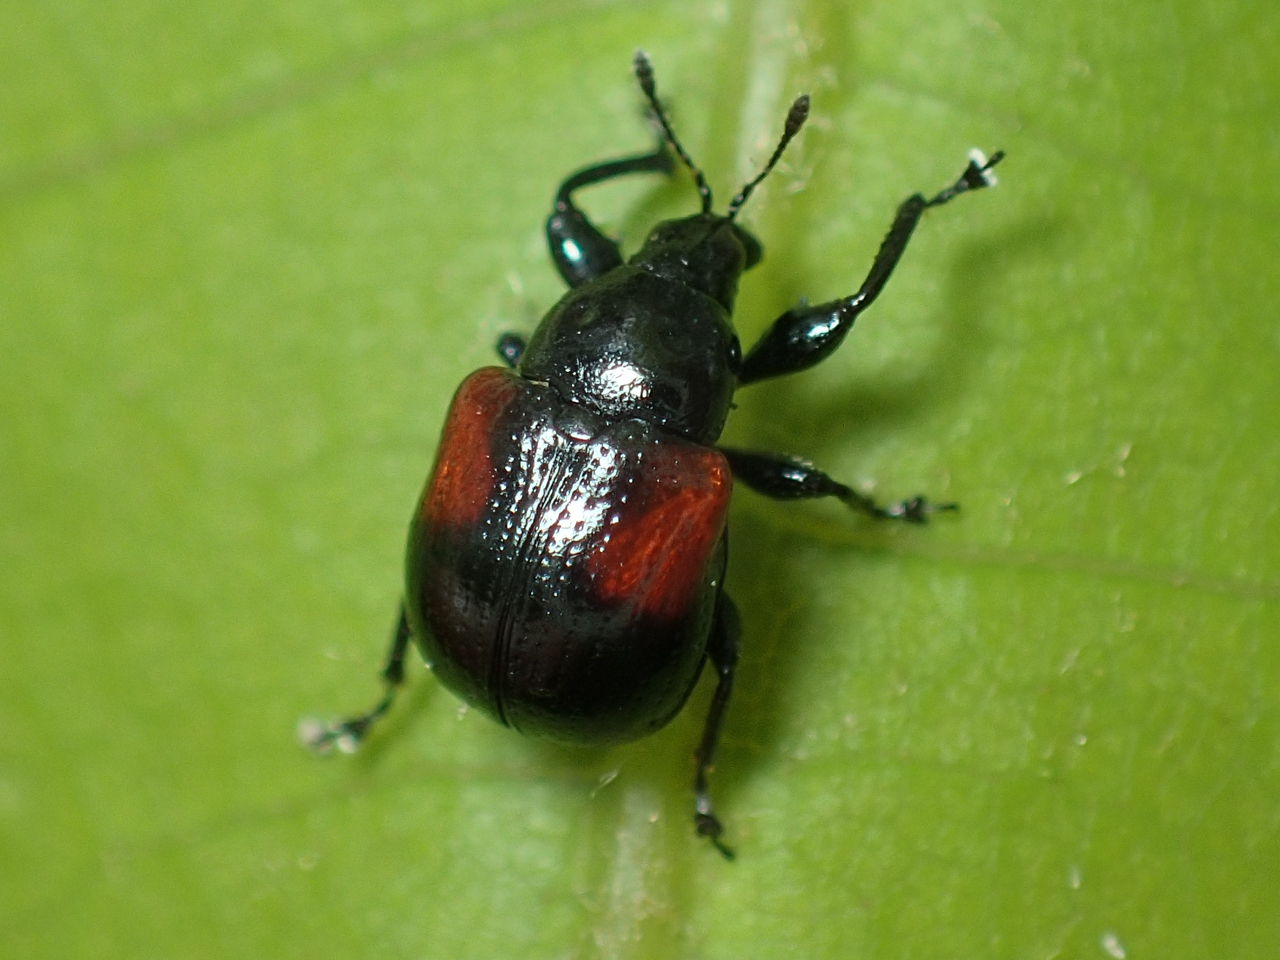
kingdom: Animalia
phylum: Arthropoda
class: Insecta
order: Coleoptera
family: Attelabidae
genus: Attelabus
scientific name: Attelabus bipustulatus
